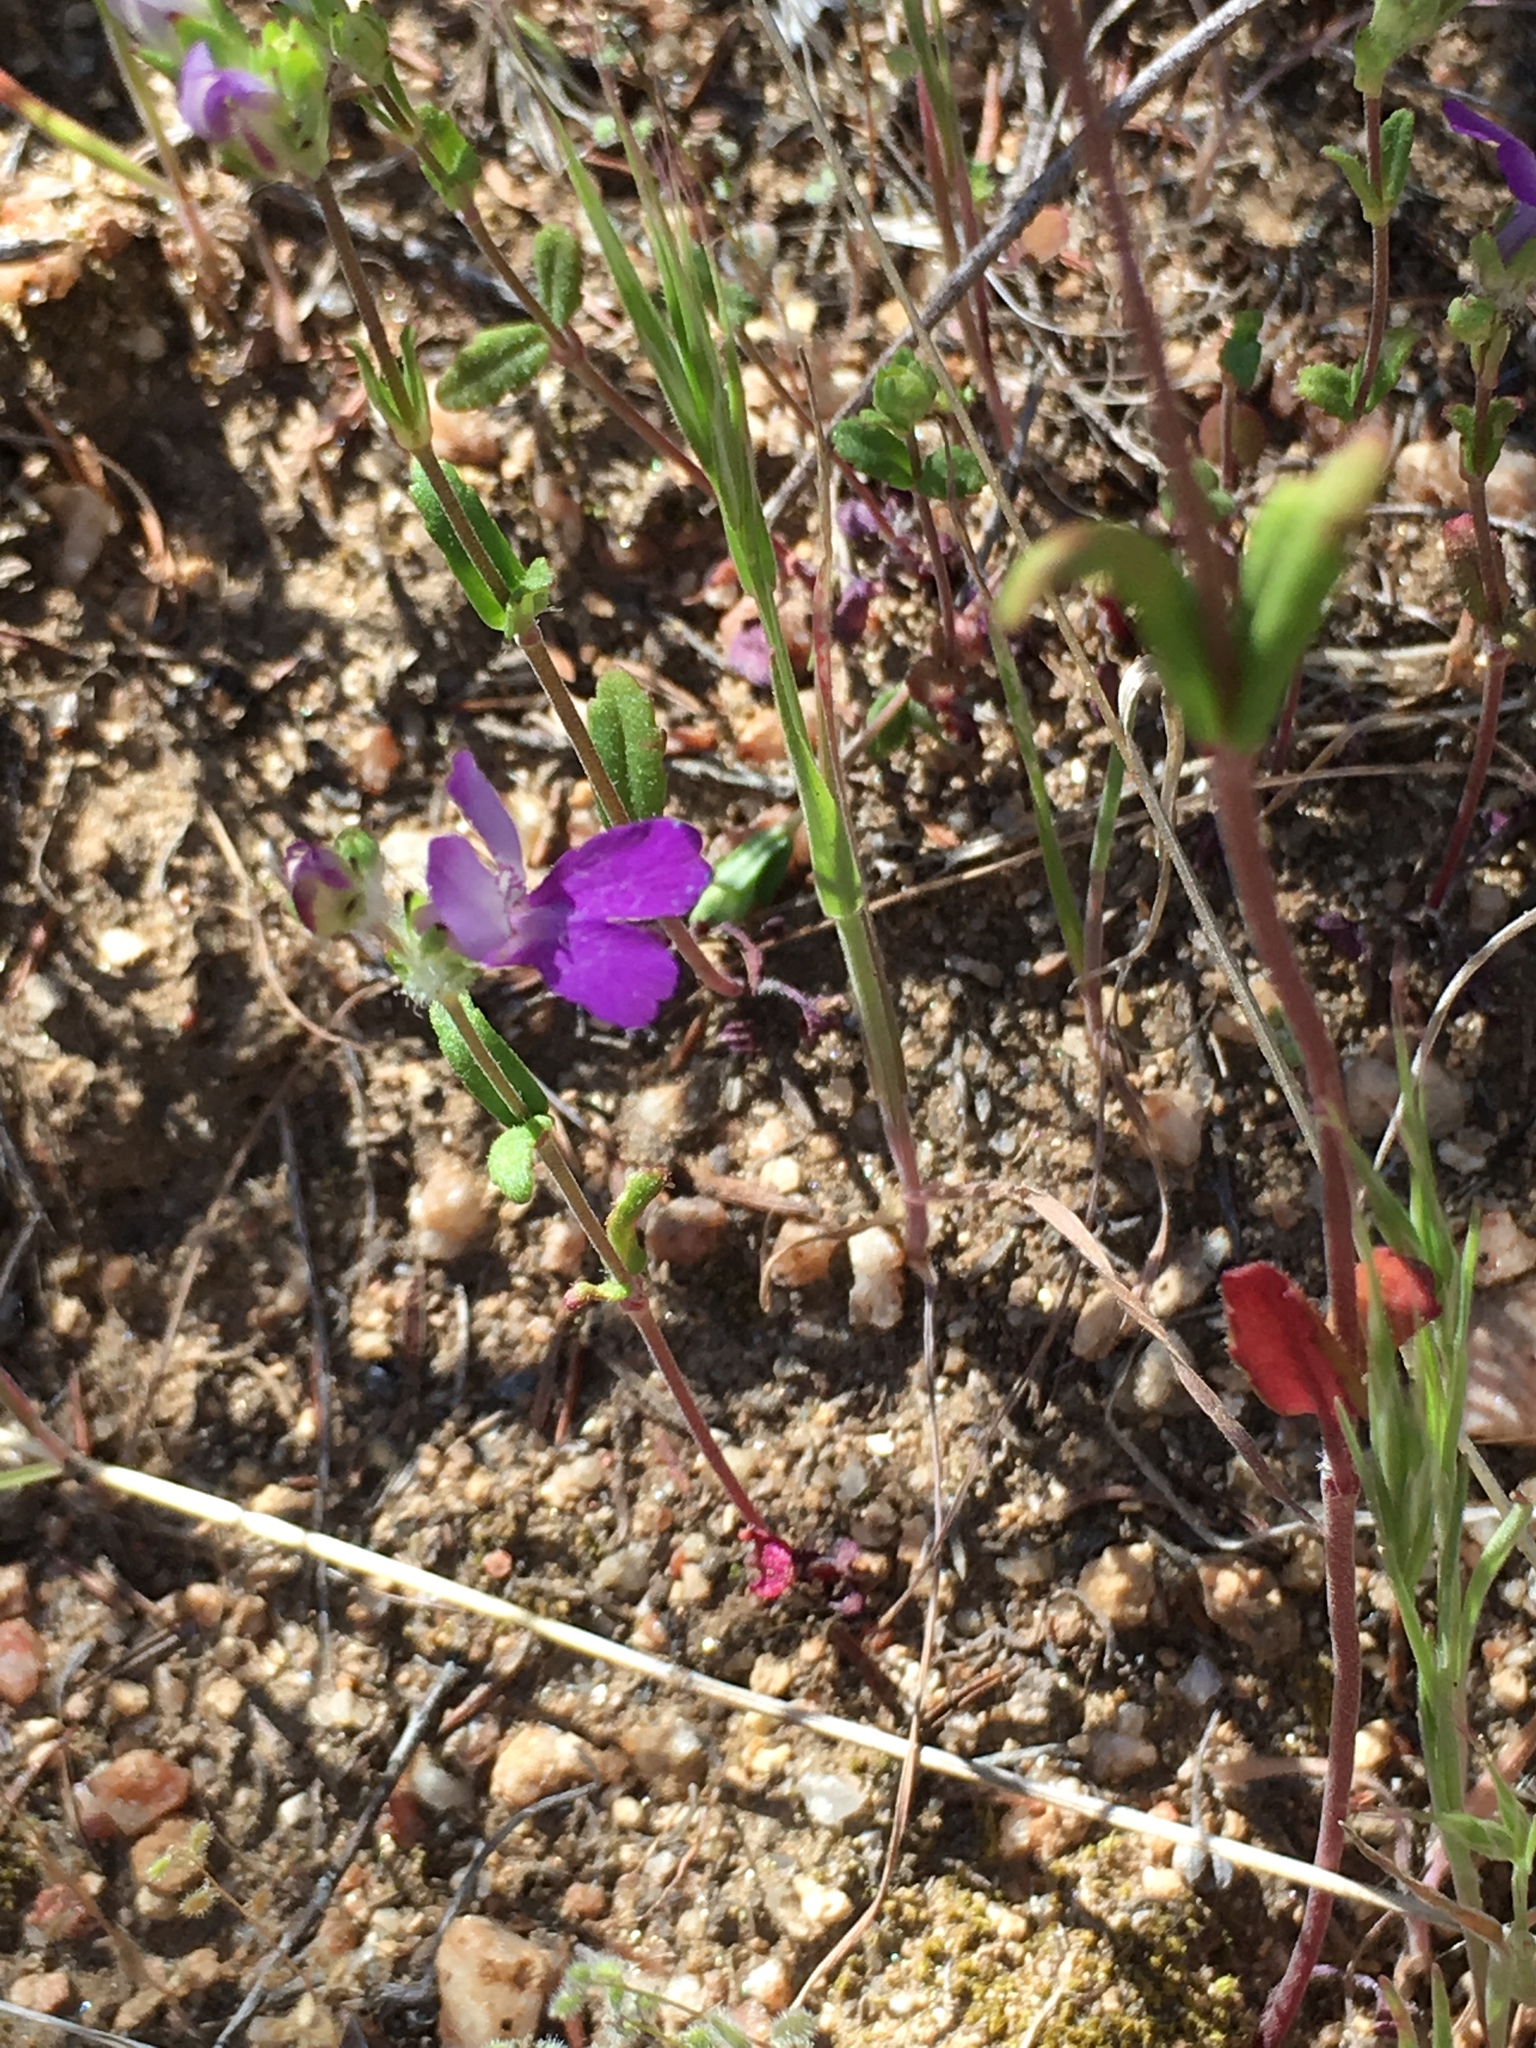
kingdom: Plantae
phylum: Tracheophyta
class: Magnoliopsida
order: Lamiales
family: Plantaginaceae
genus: Collinsia
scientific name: Collinsia heterophylla
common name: Chinese-houses
